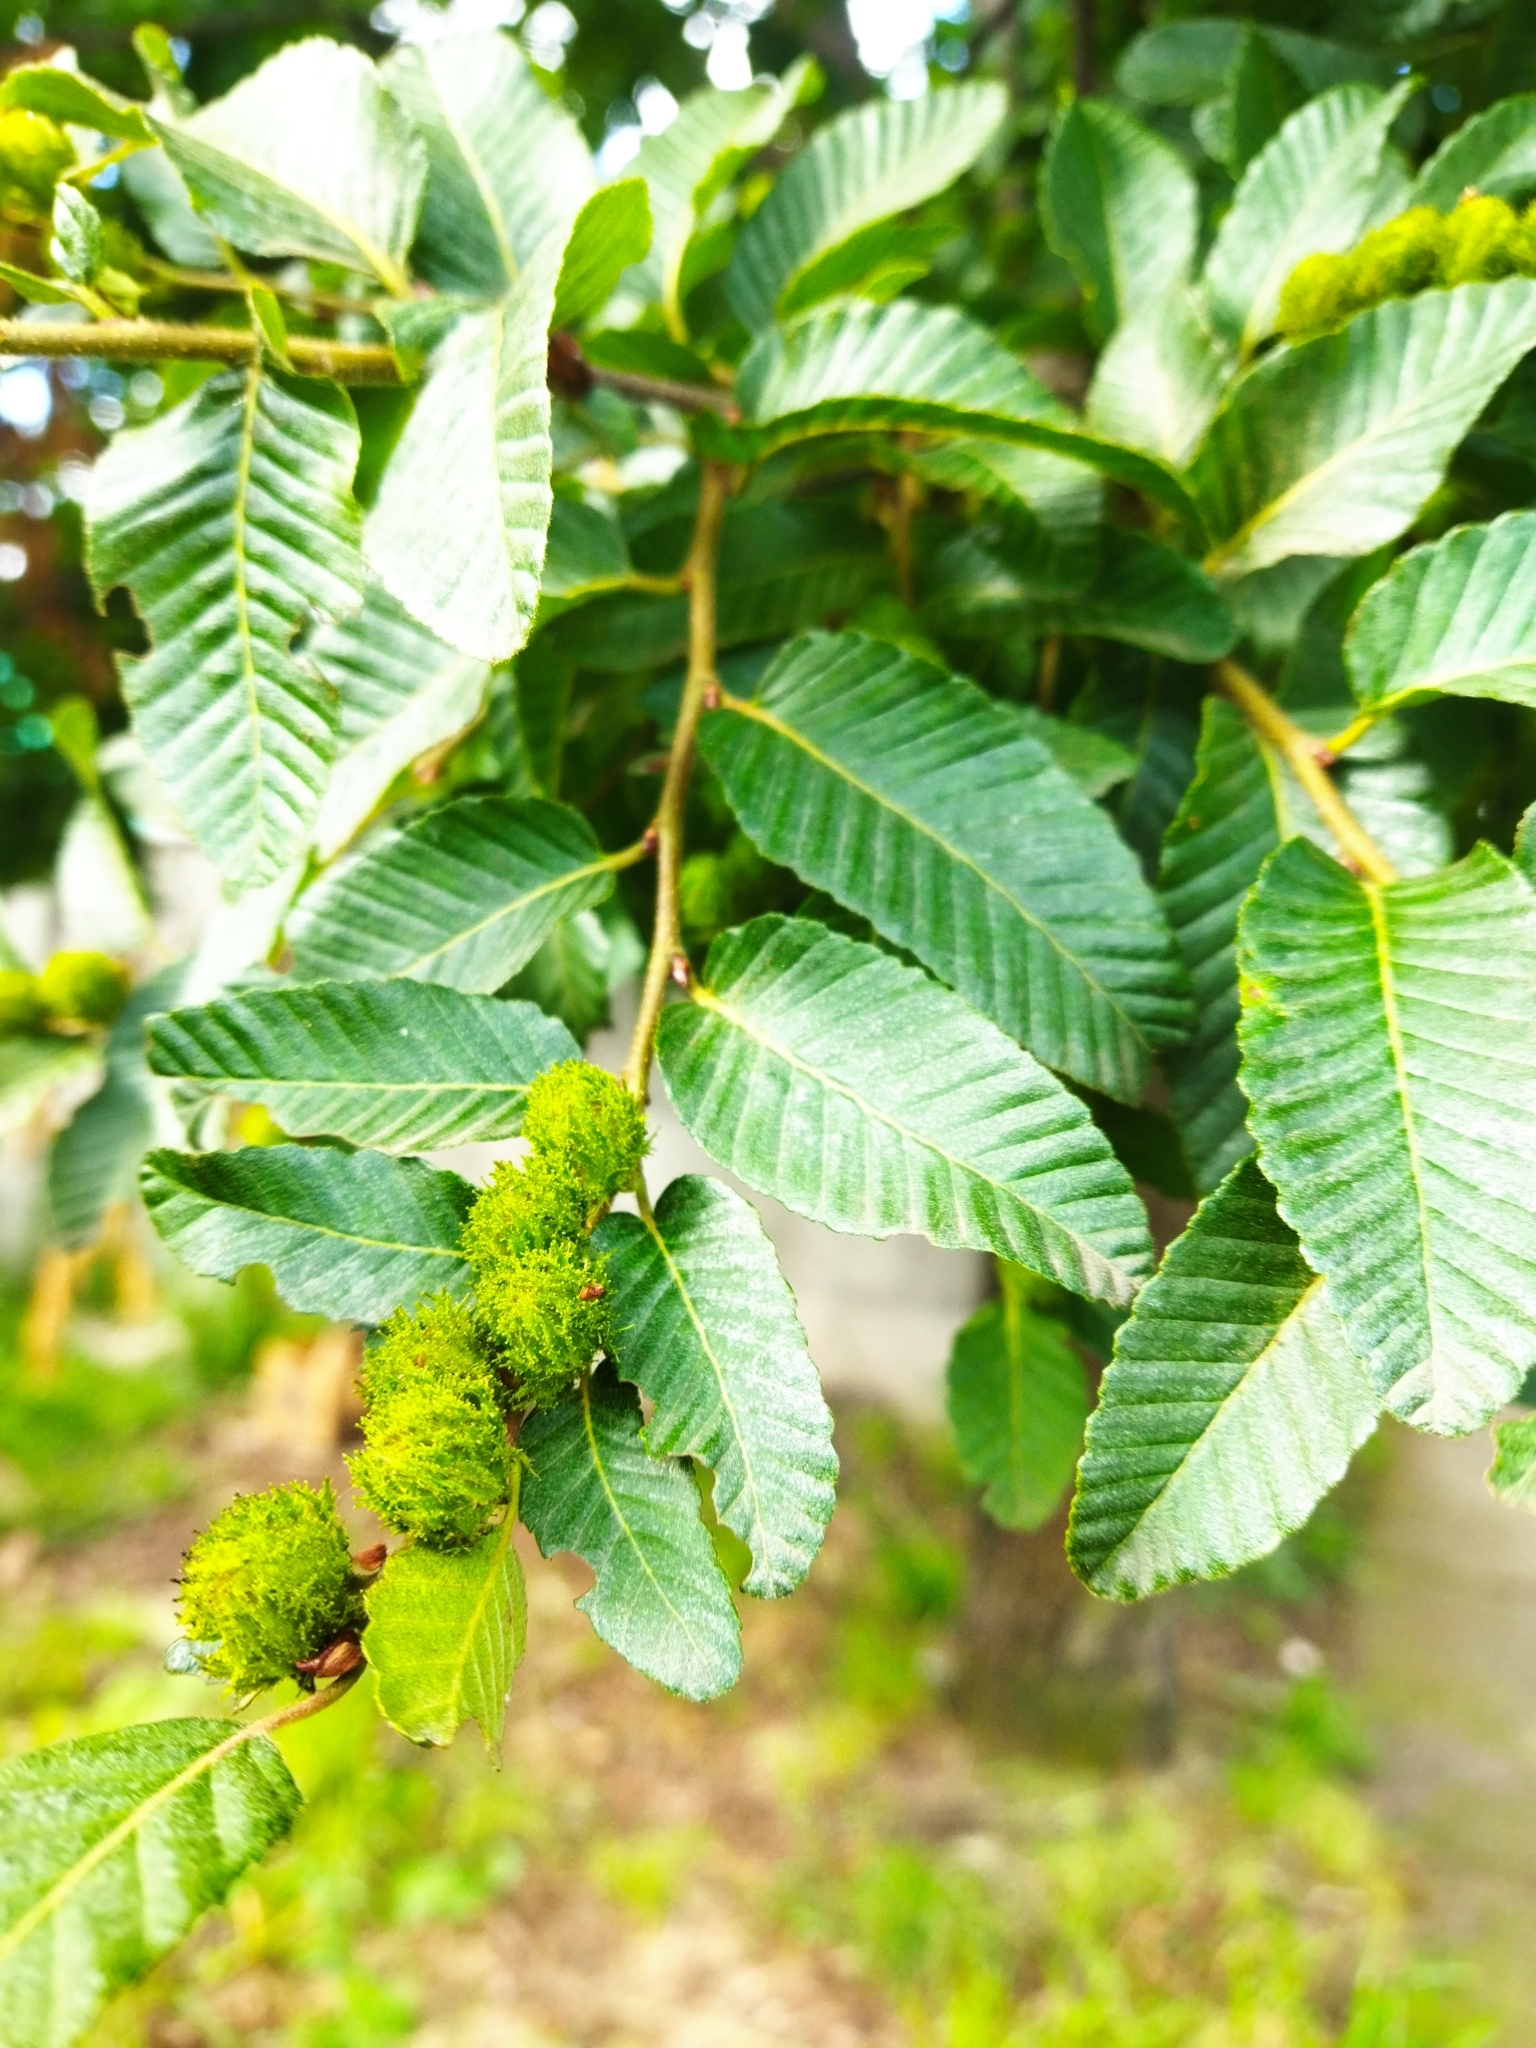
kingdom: Plantae
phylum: Tracheophyta
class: Magnoliopsida
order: Fagales
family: Nothofagaceae
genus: Nothofagus
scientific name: Nothofagus alpina
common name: Rauli
